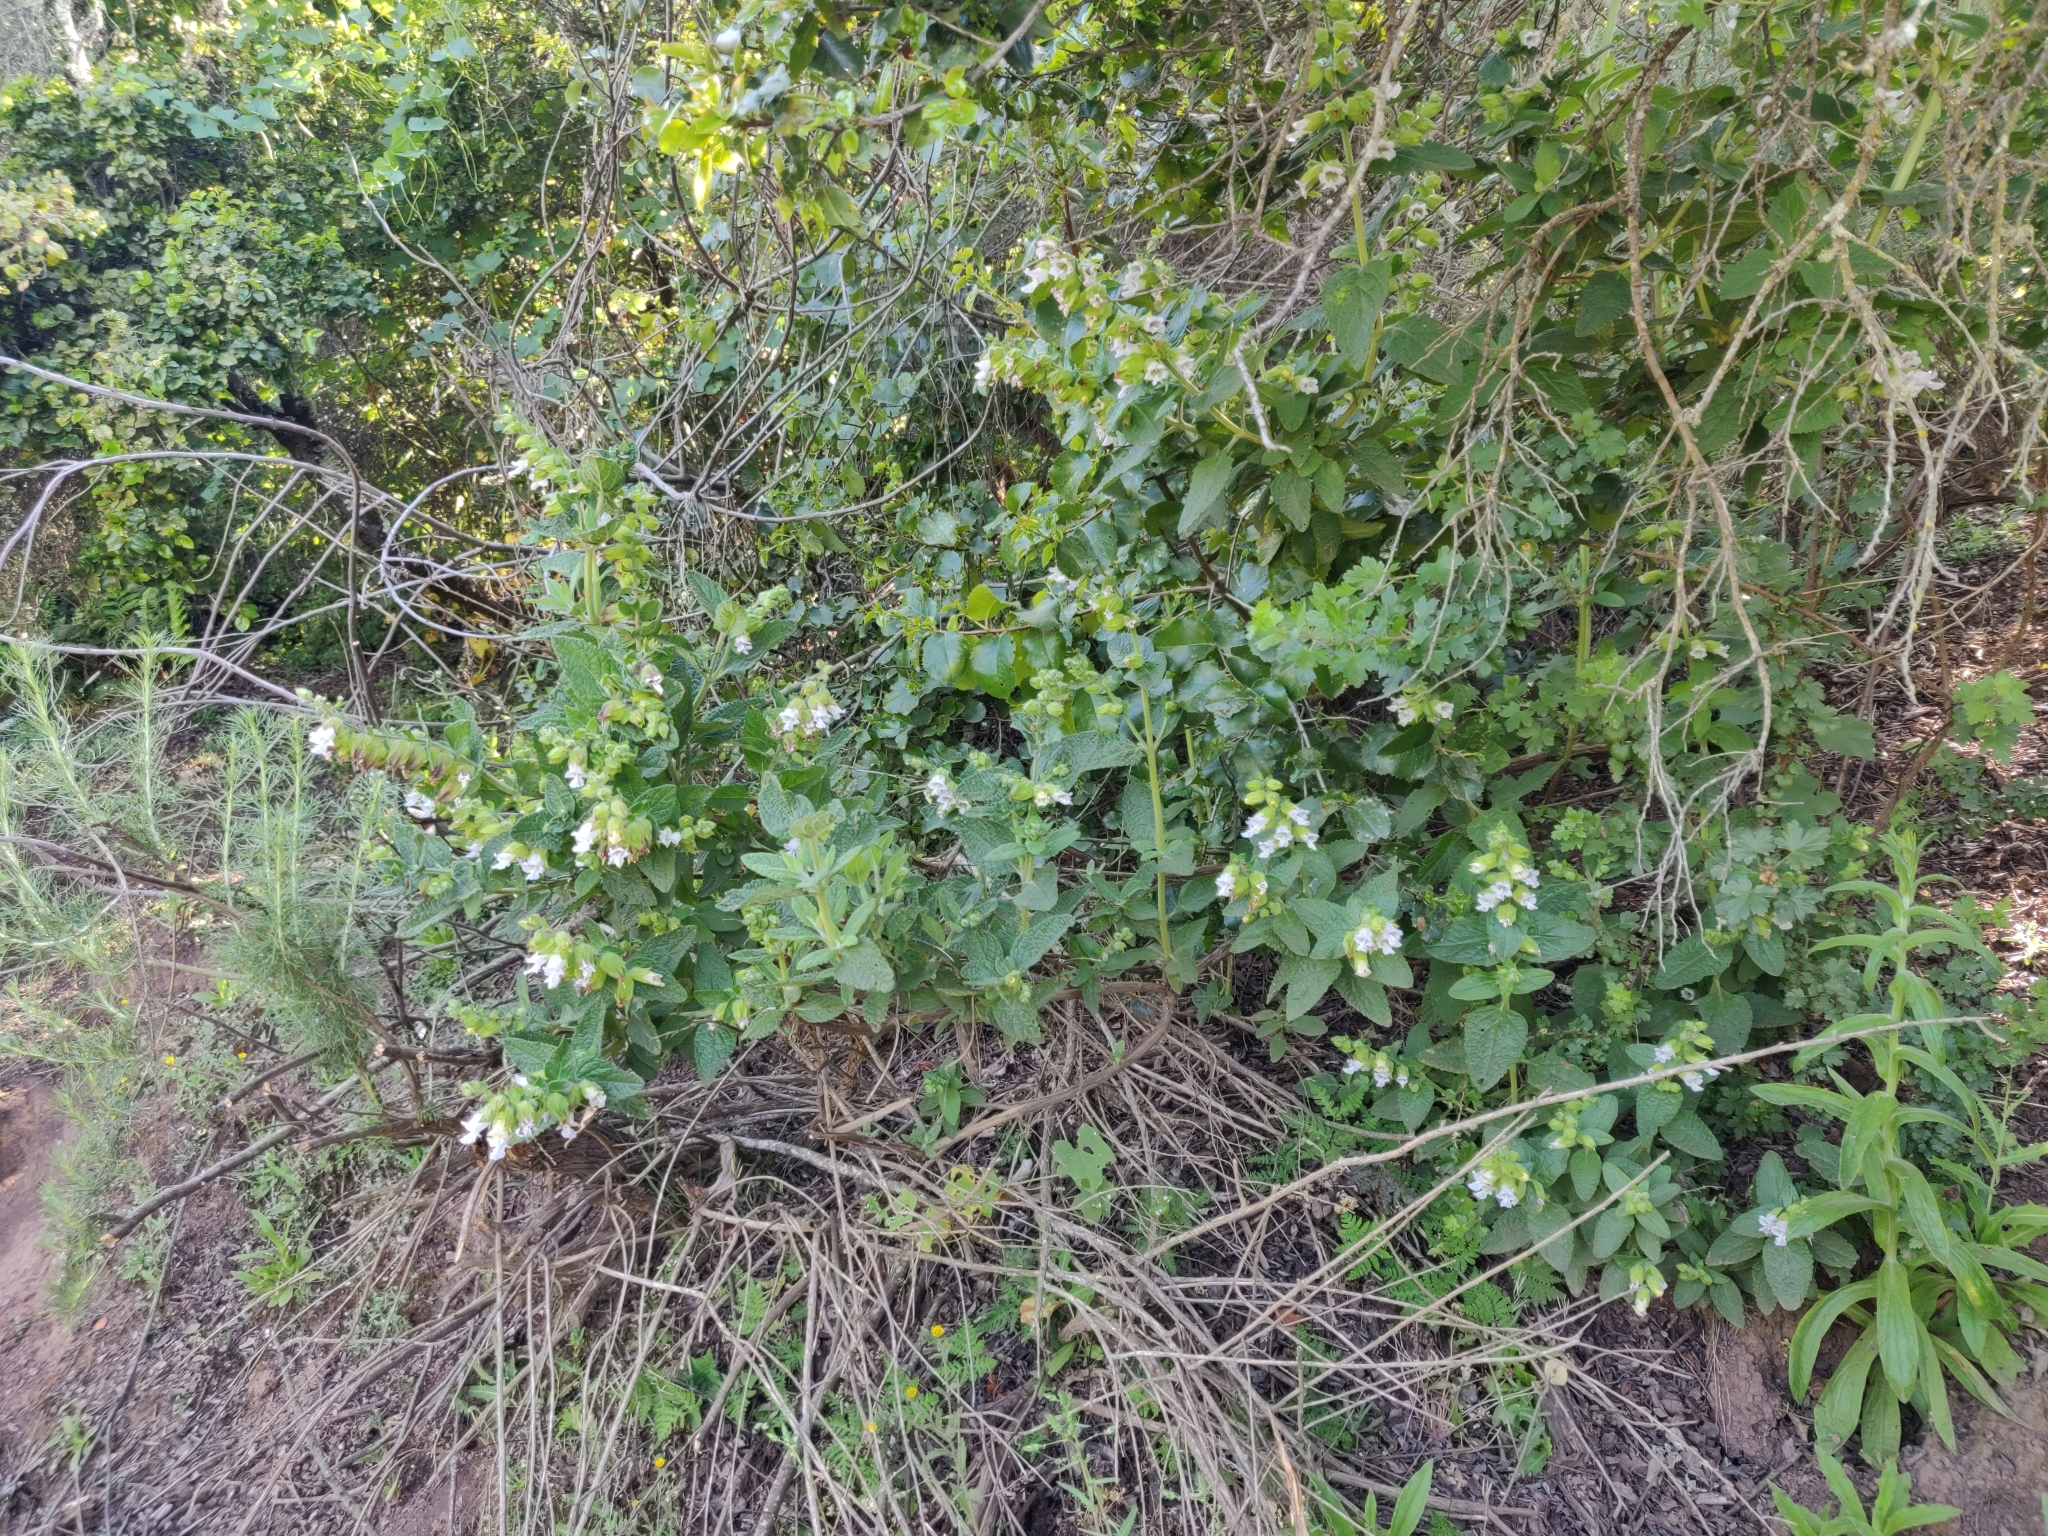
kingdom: Plantae
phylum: Tracheophyta
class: Magnoliopsida
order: Lamiales
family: Lamiaceae
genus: Lepechinia
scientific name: Lepechinia calycina
